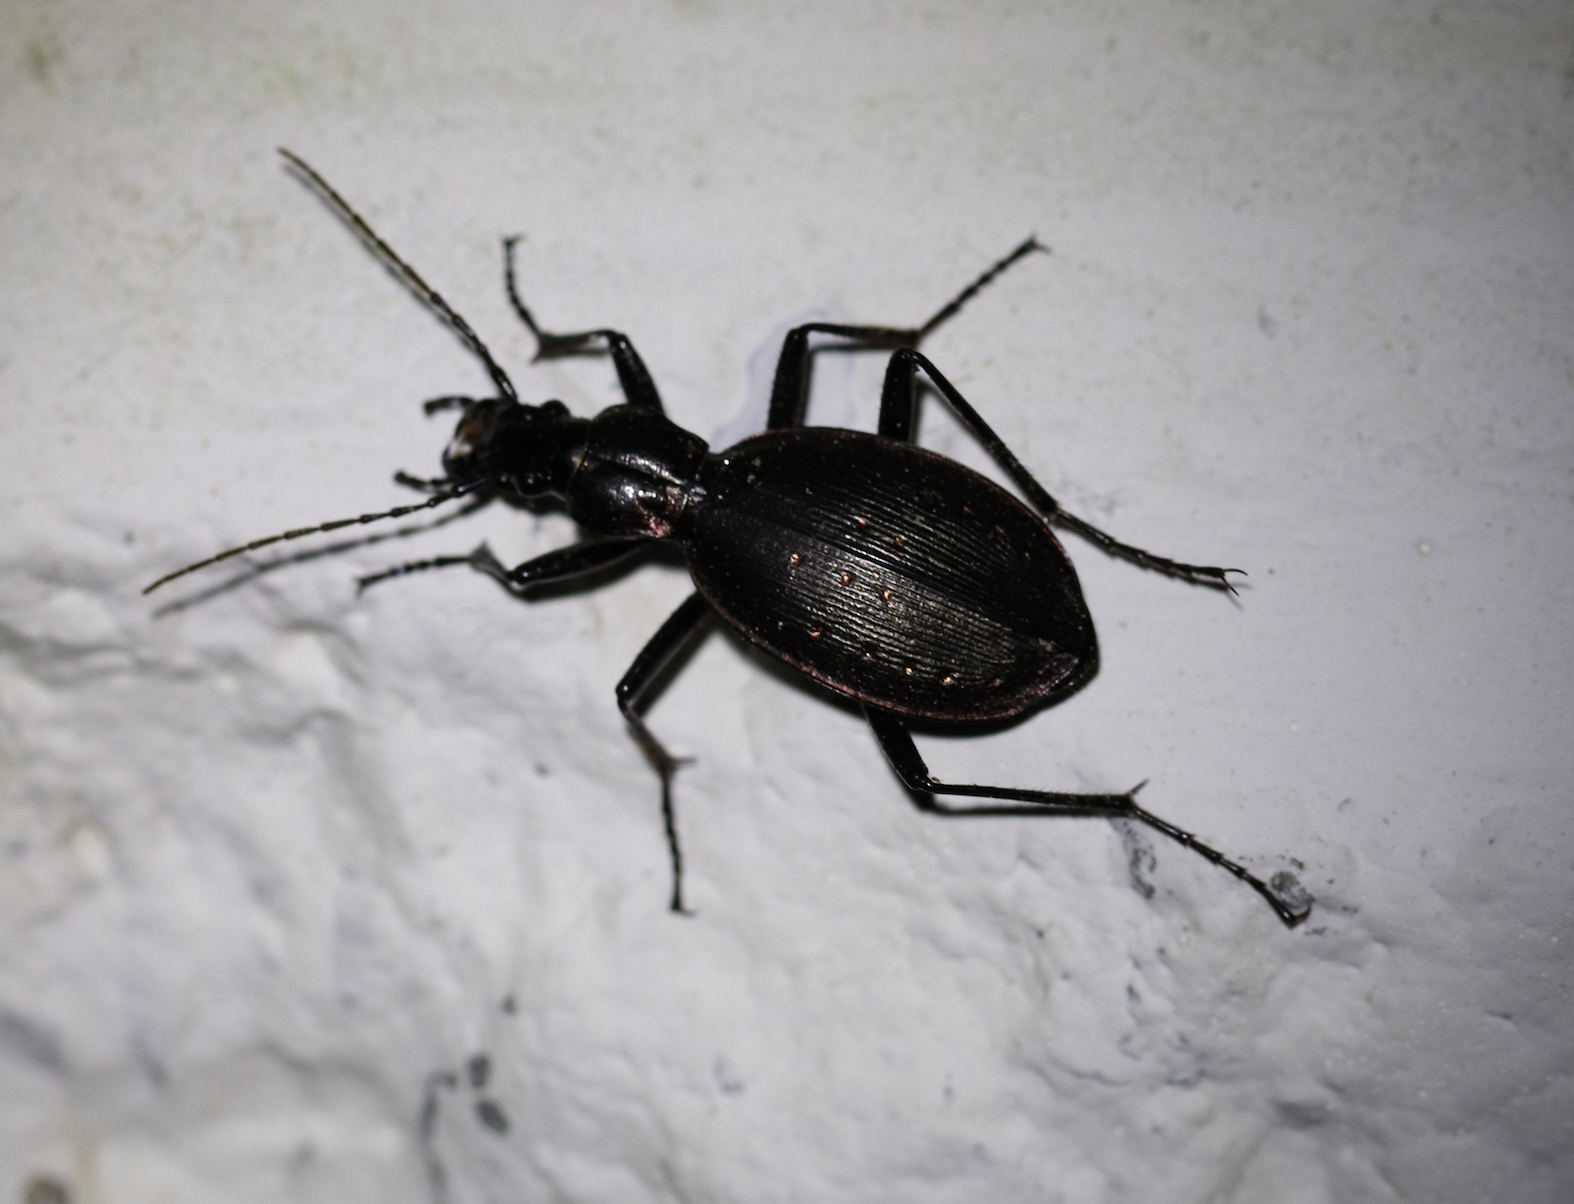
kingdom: Animalia
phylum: Arthropoda
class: Insecta
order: Coleoptera
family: Carabidae
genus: Carabus
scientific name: Carabus depressus
